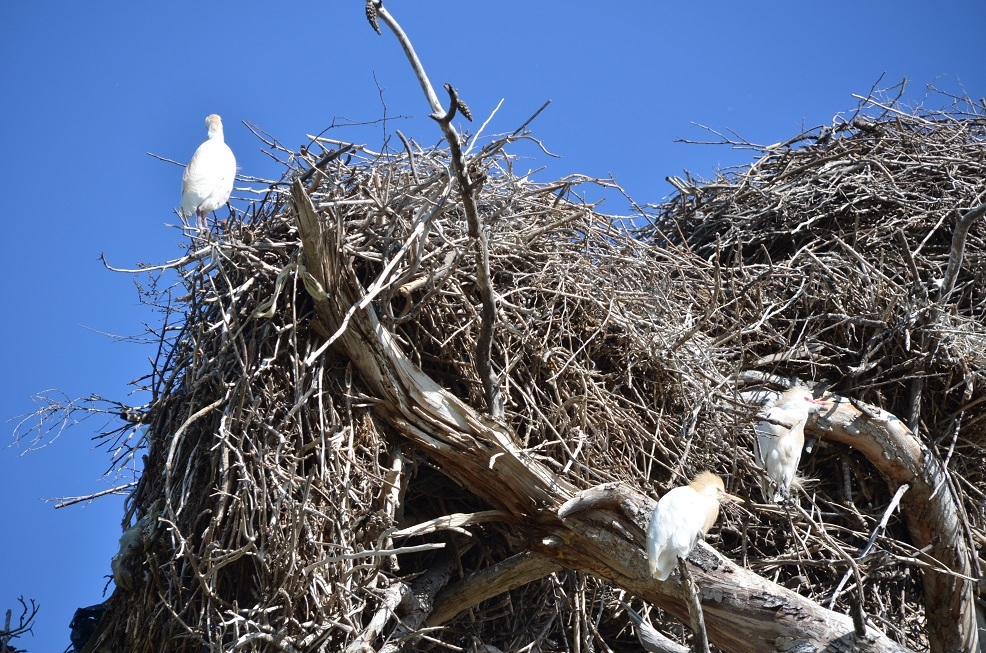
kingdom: Animalia
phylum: Chordata
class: Aves
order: Pelecaniformes
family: Ardeidae
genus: Bubulcus
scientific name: Bubulcus ibis
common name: Cattle egret
